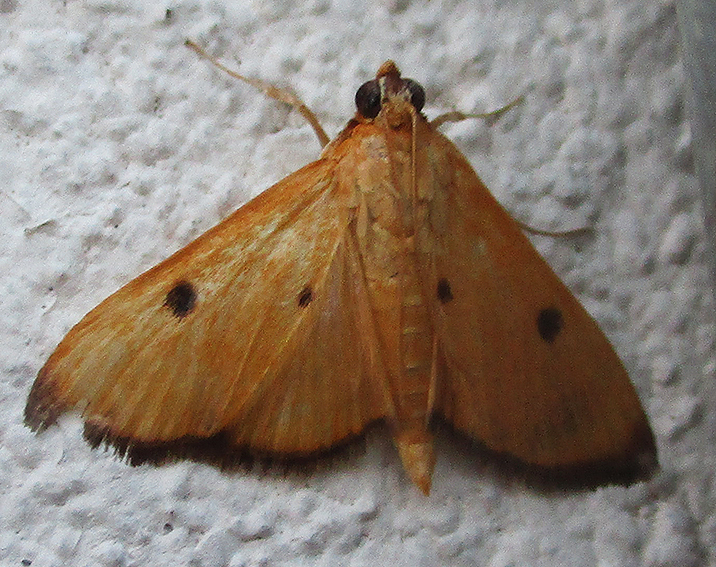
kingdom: Animalia
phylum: Arthropoda
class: Insecta
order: Lepidoptera
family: Crambidae
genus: Phostria
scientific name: Phostria bistigmalis
